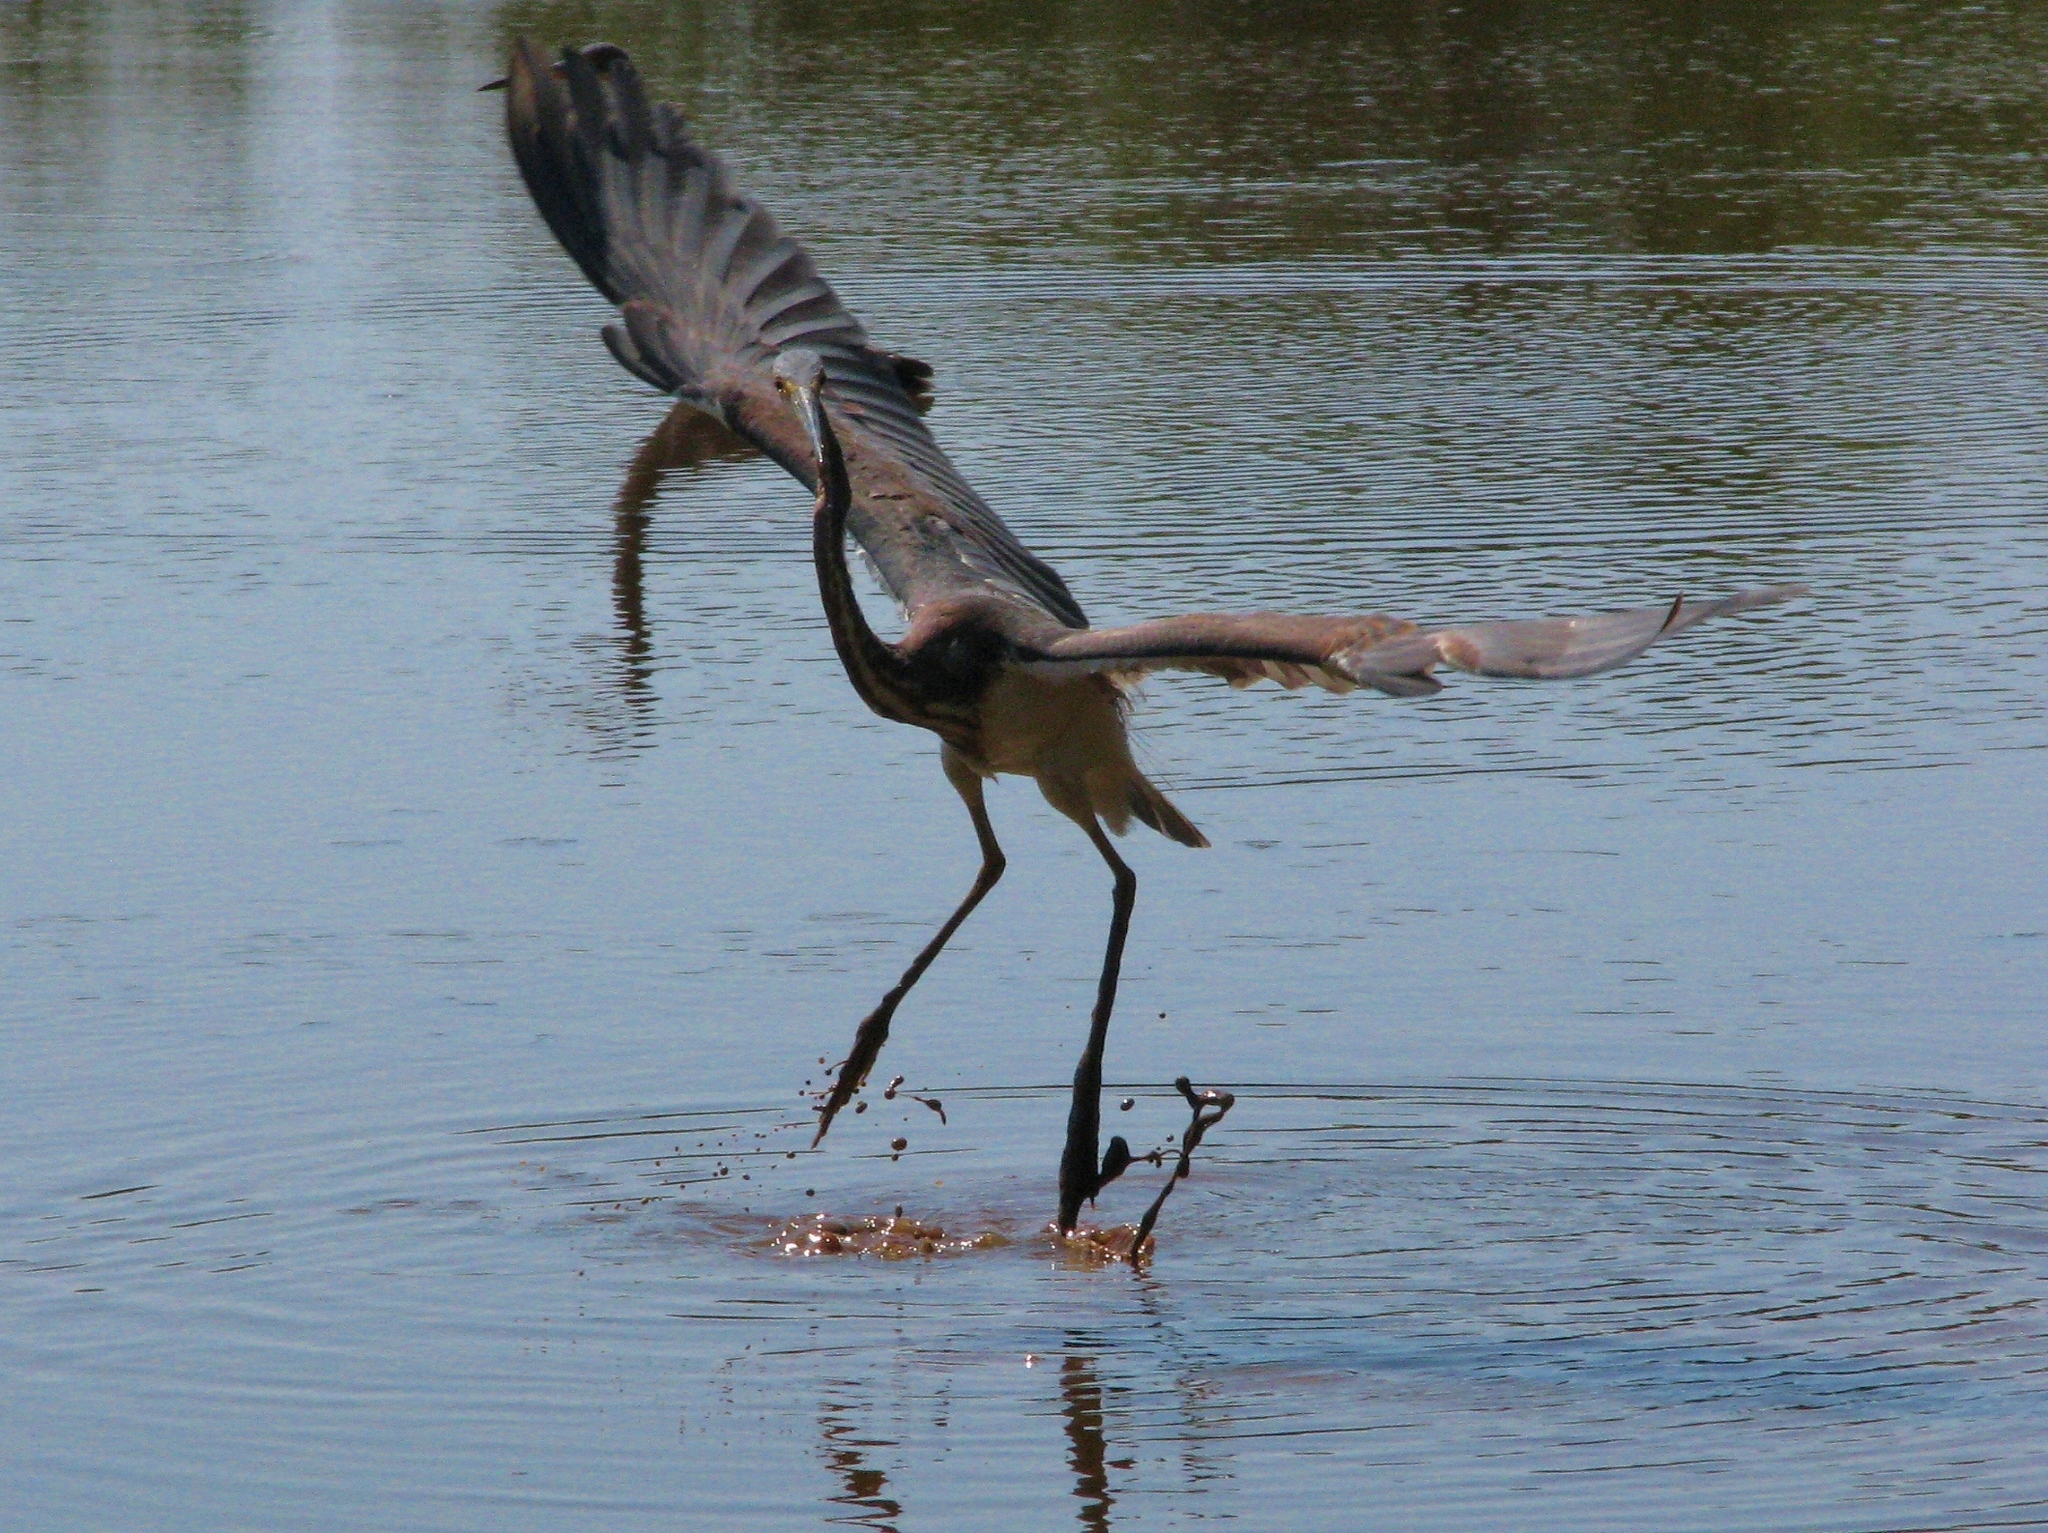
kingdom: Animalia
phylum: Chordata
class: Aves
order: Pelecaniformes
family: Ardeidae
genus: Egretta
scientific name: Egretta tricolor
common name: Tricolored heron
